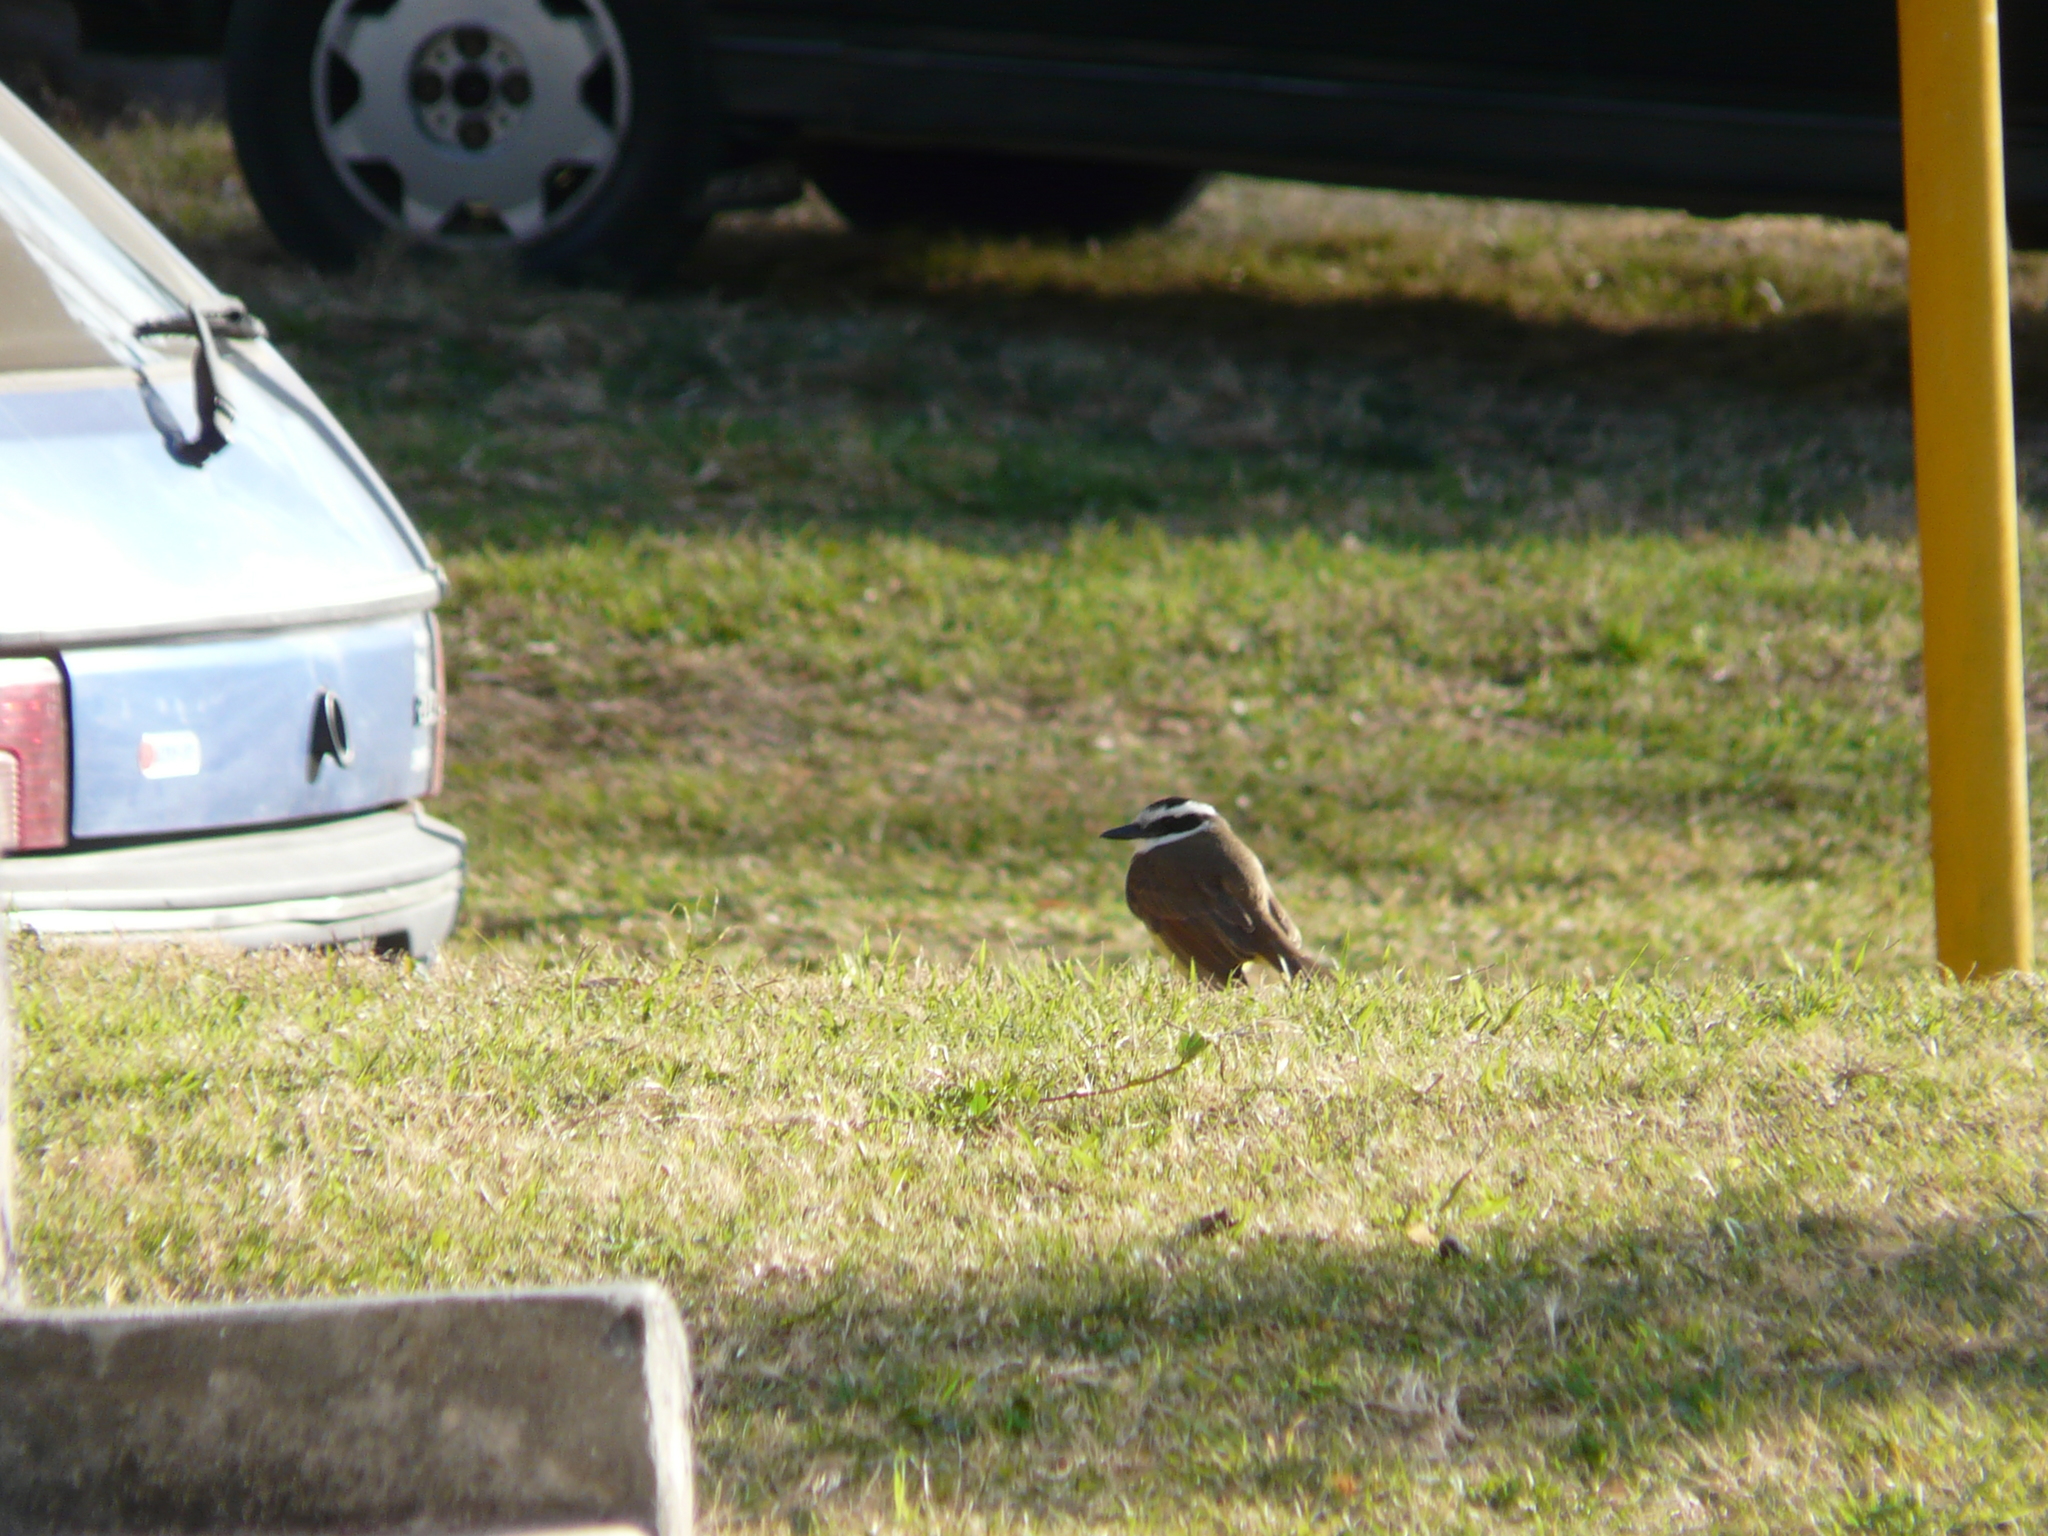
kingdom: Animalia
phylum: Chordata
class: Aves
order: Passeriformes
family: Tyrannidae
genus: Pitangus
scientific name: Pitangus sulphuratus
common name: Great kiskadee
